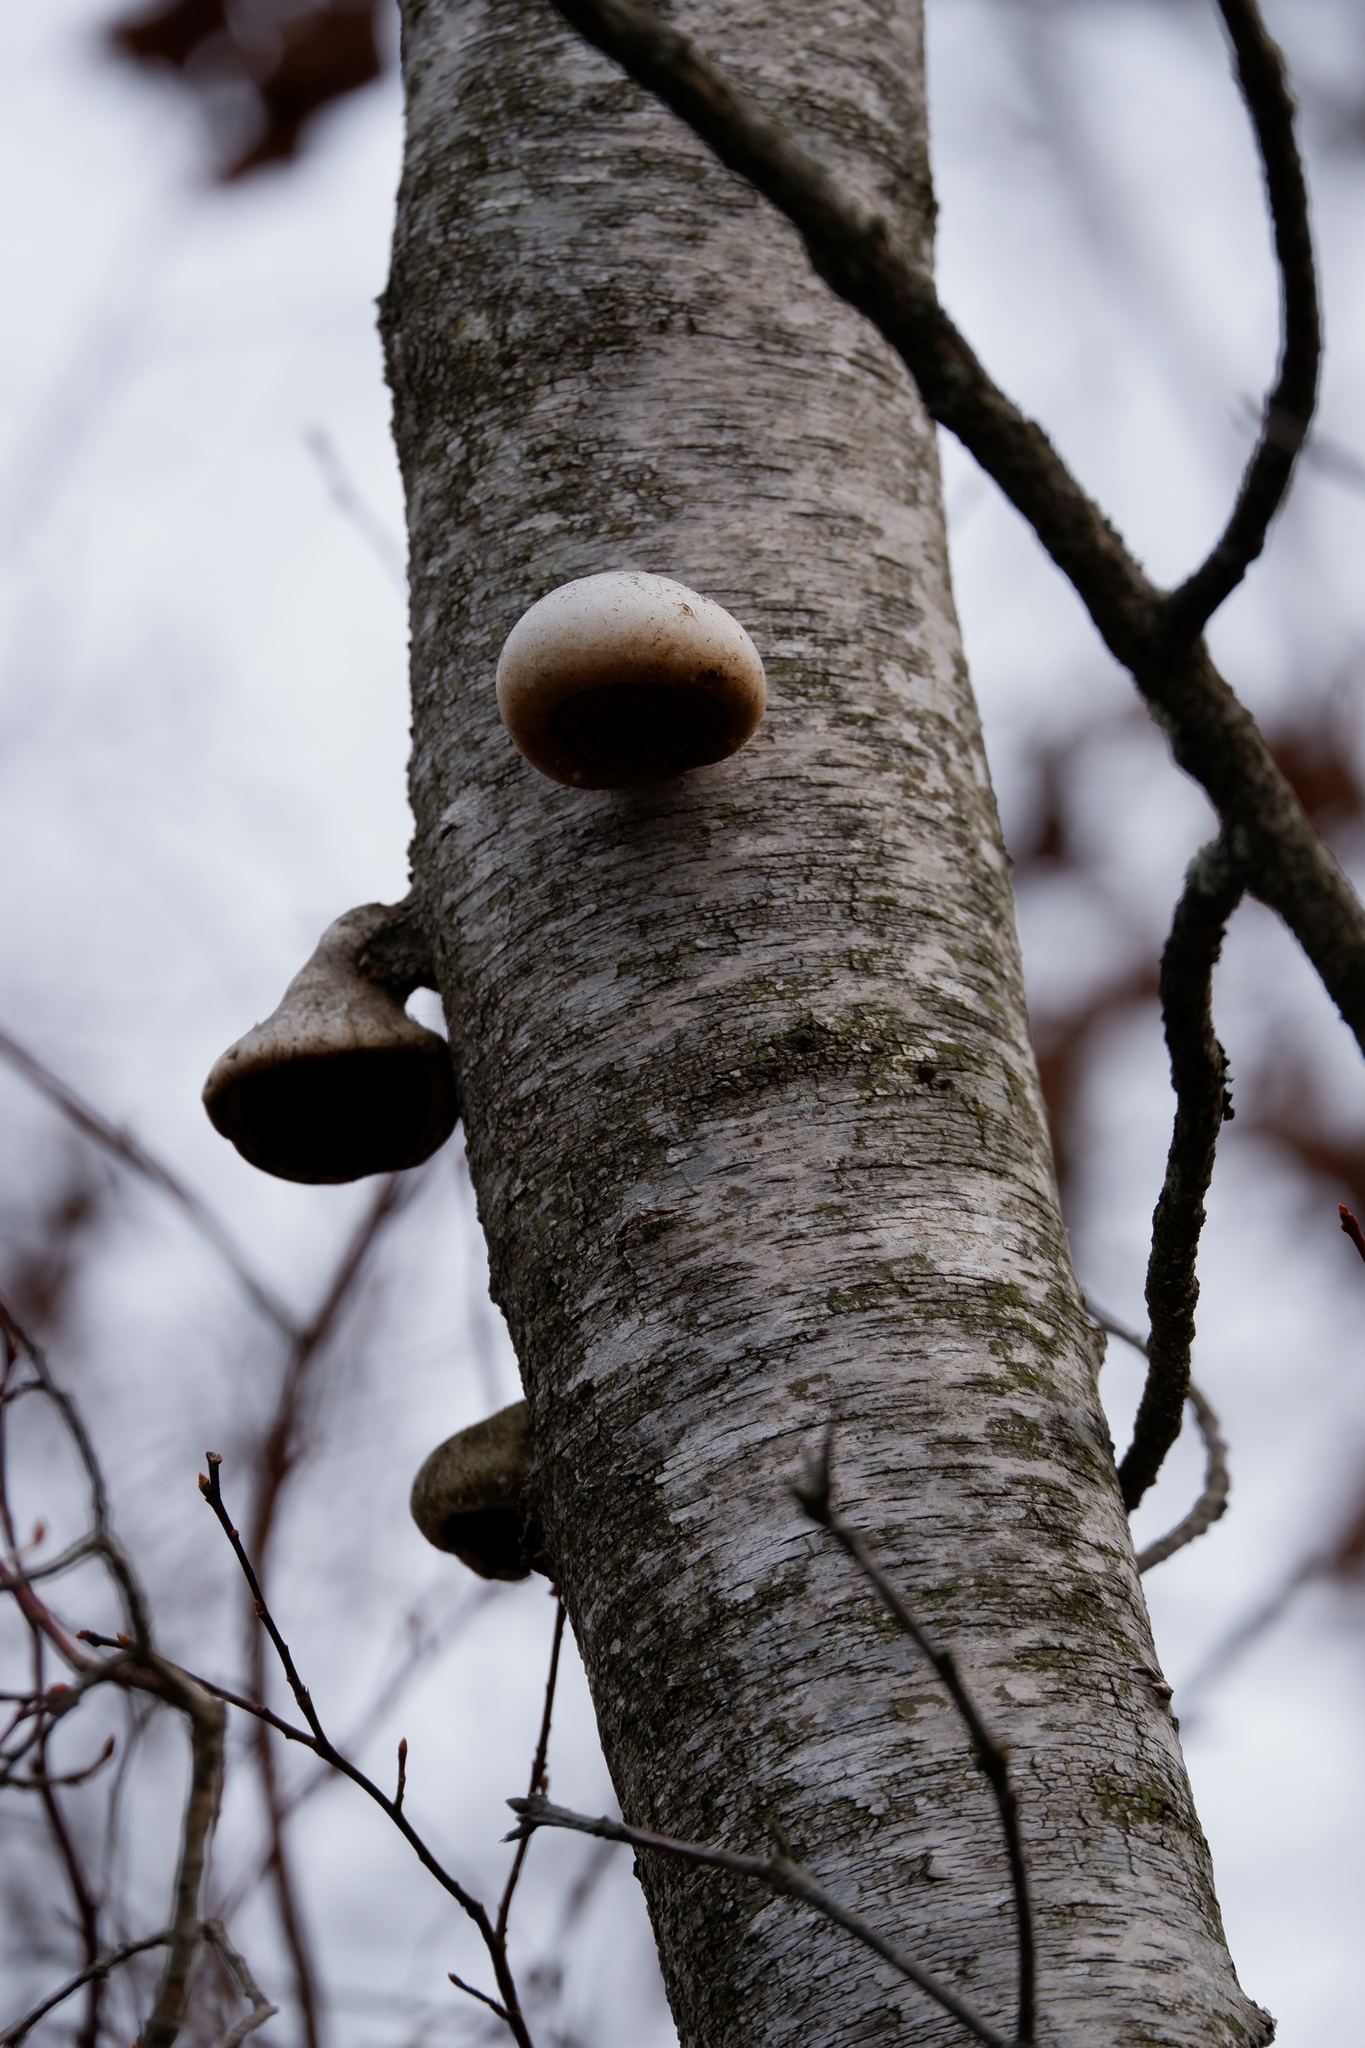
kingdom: Fungi
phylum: Basidiomycota
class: Agaricomycetes
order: Polyporales
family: Fomitopsidaceae
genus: Fomitopsis
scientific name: Fomitopsis betulina
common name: Birch polypore
